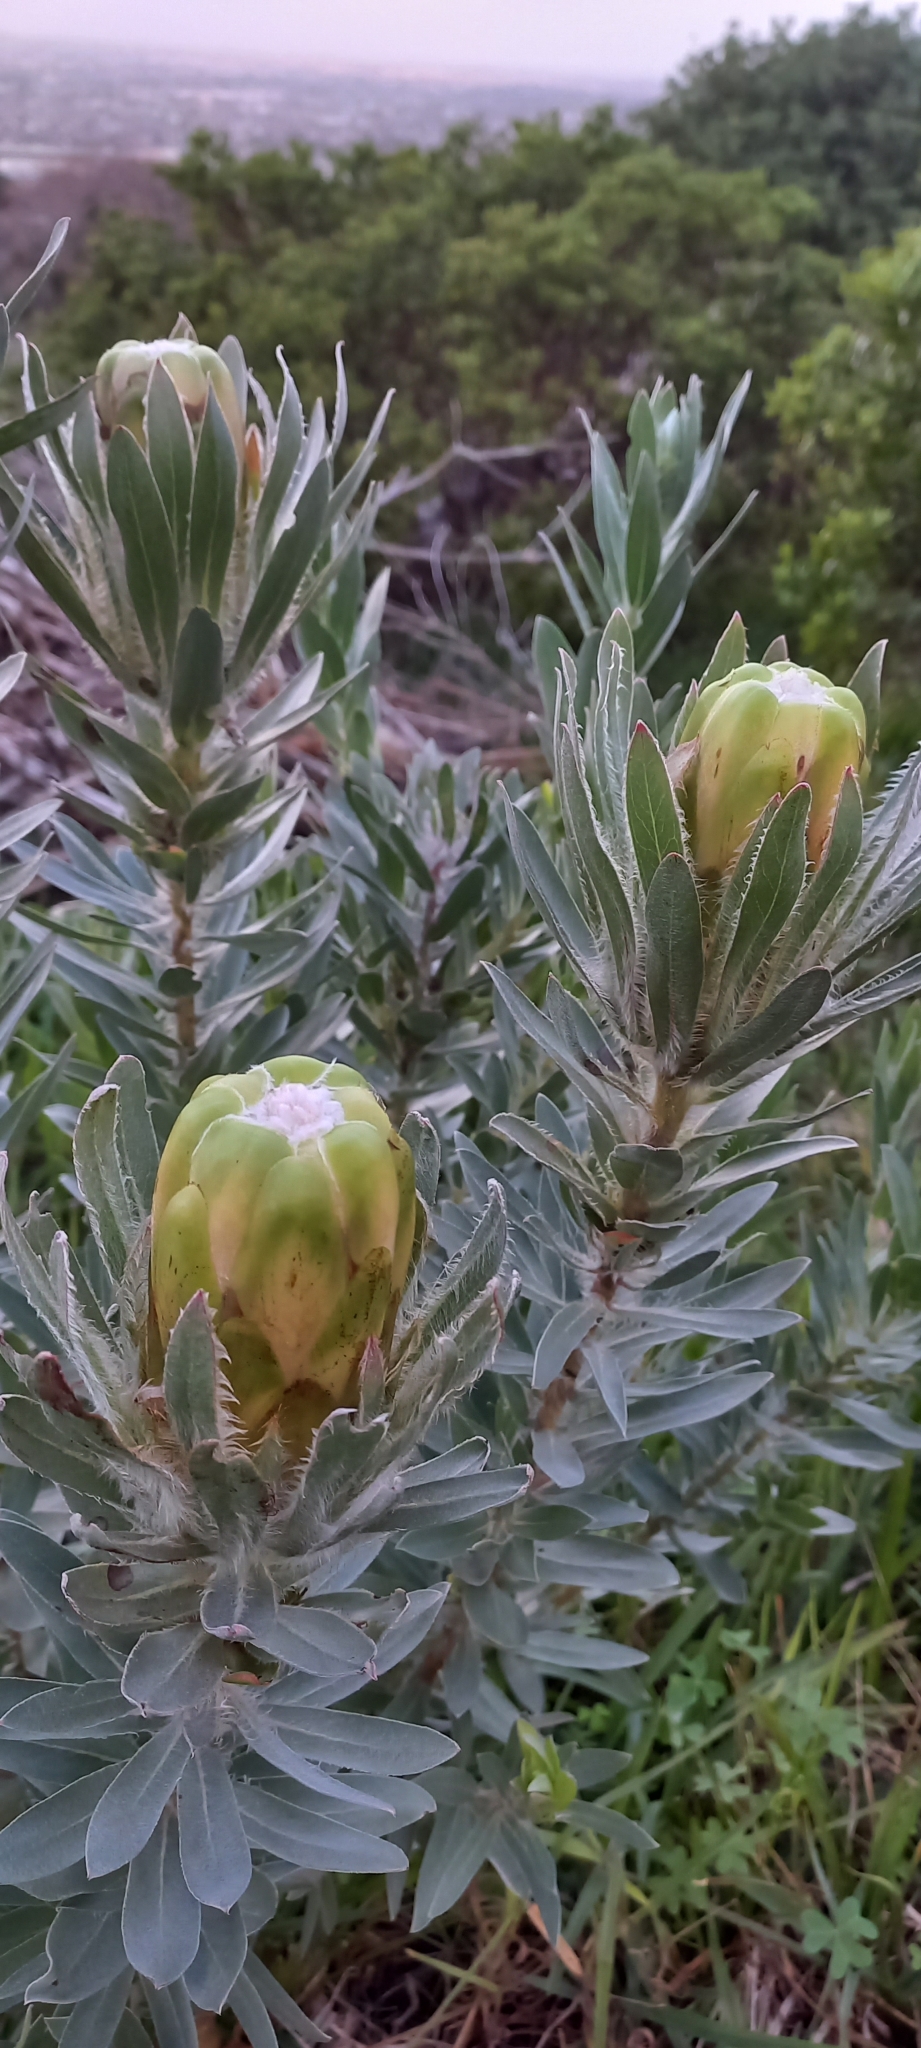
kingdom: Plantae
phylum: Tracheophyta
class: Magnoliopsida
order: Proteales
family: Proteaceae
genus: Protea
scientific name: Protea coronata
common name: Green sugarbush
